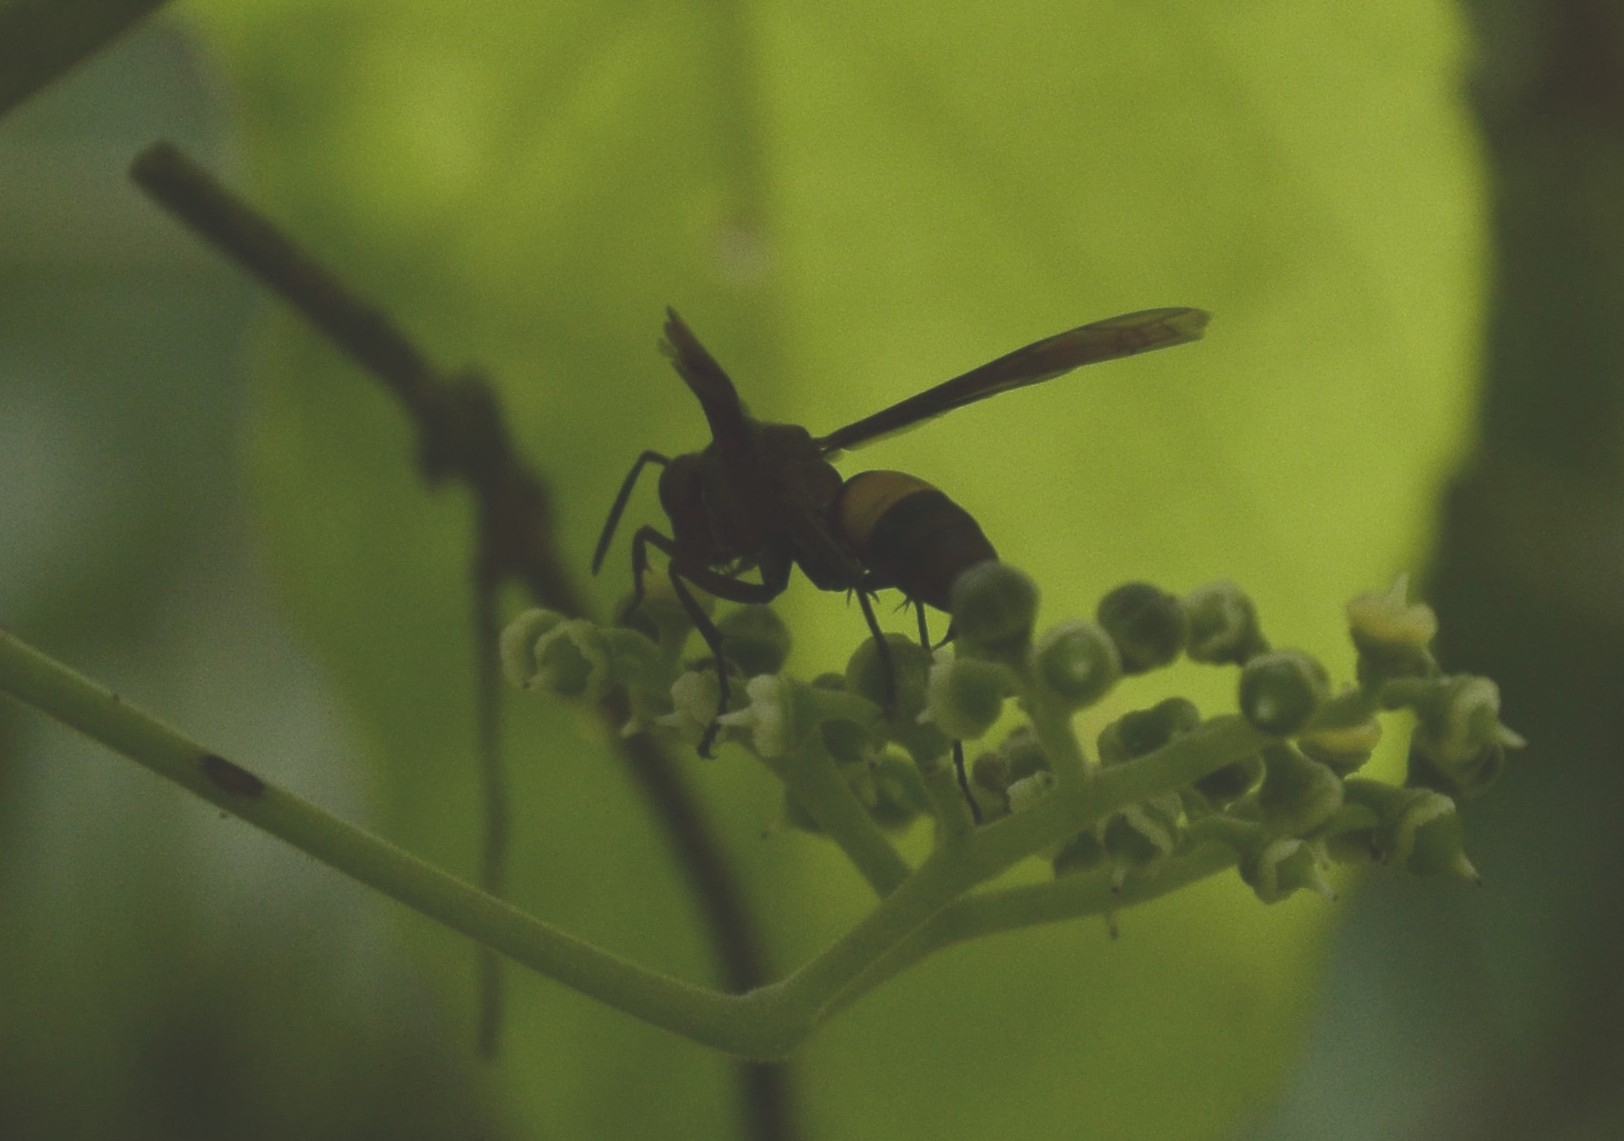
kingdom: Animalia
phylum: Arthropoda
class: Insecta
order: Hymenoptera
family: Eumenidae
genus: Polistes
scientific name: Polistes sagittarius
